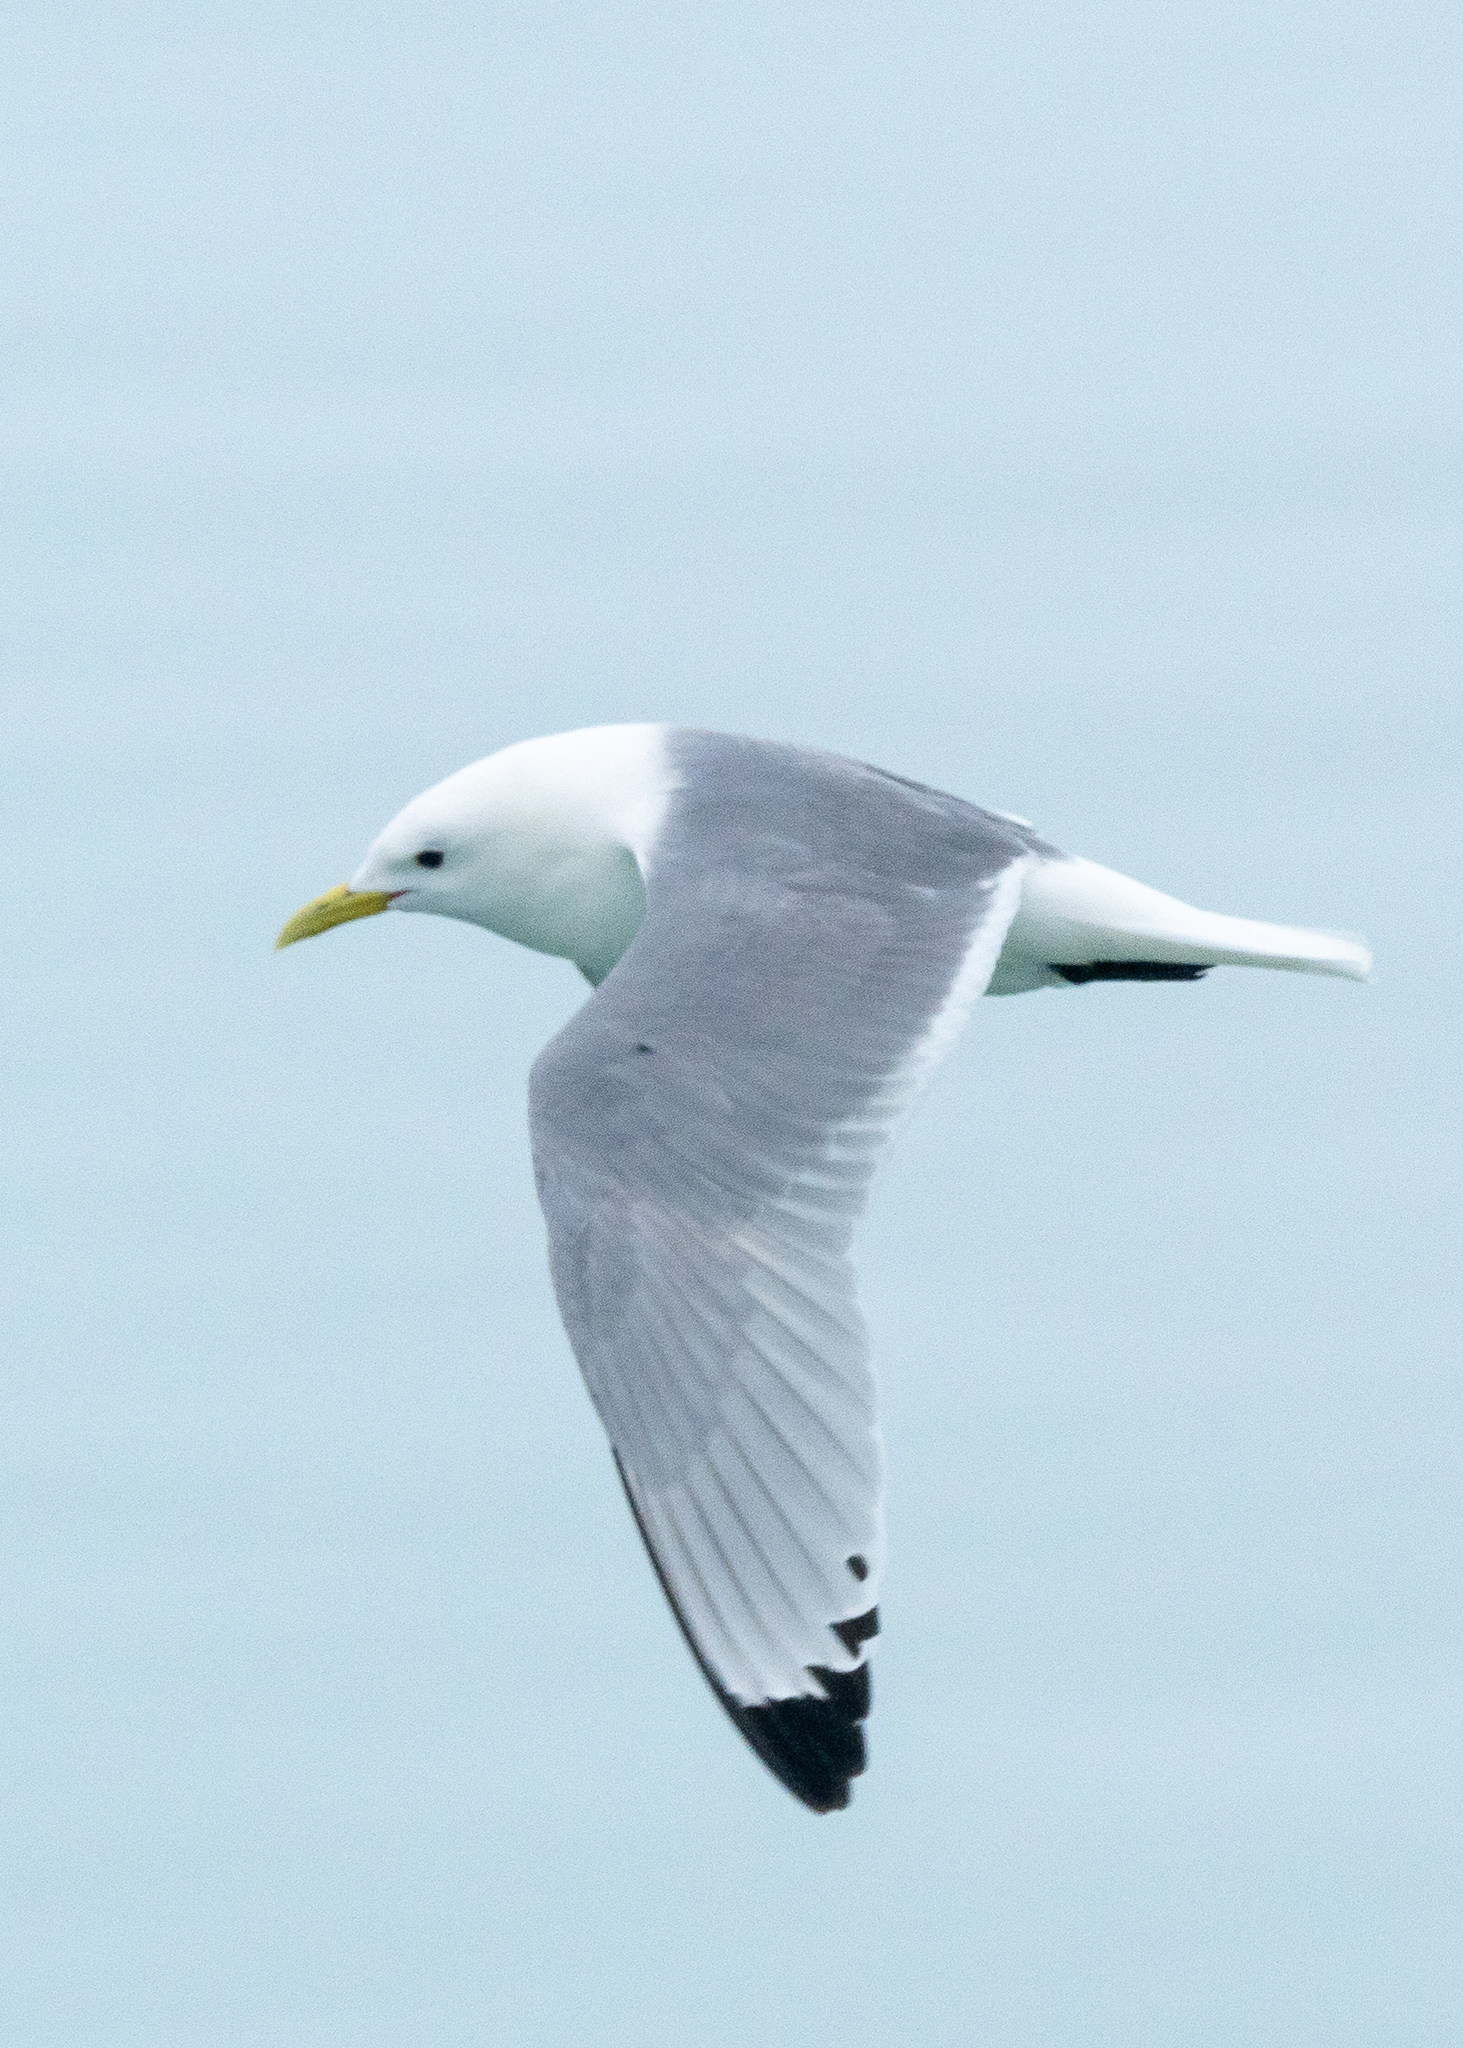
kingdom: Animalia
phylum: Chordata
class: Aves
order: Charadriiformes
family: Laridae
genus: Rissa
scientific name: Rissa tridactyla
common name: Black-legged kittiwake
